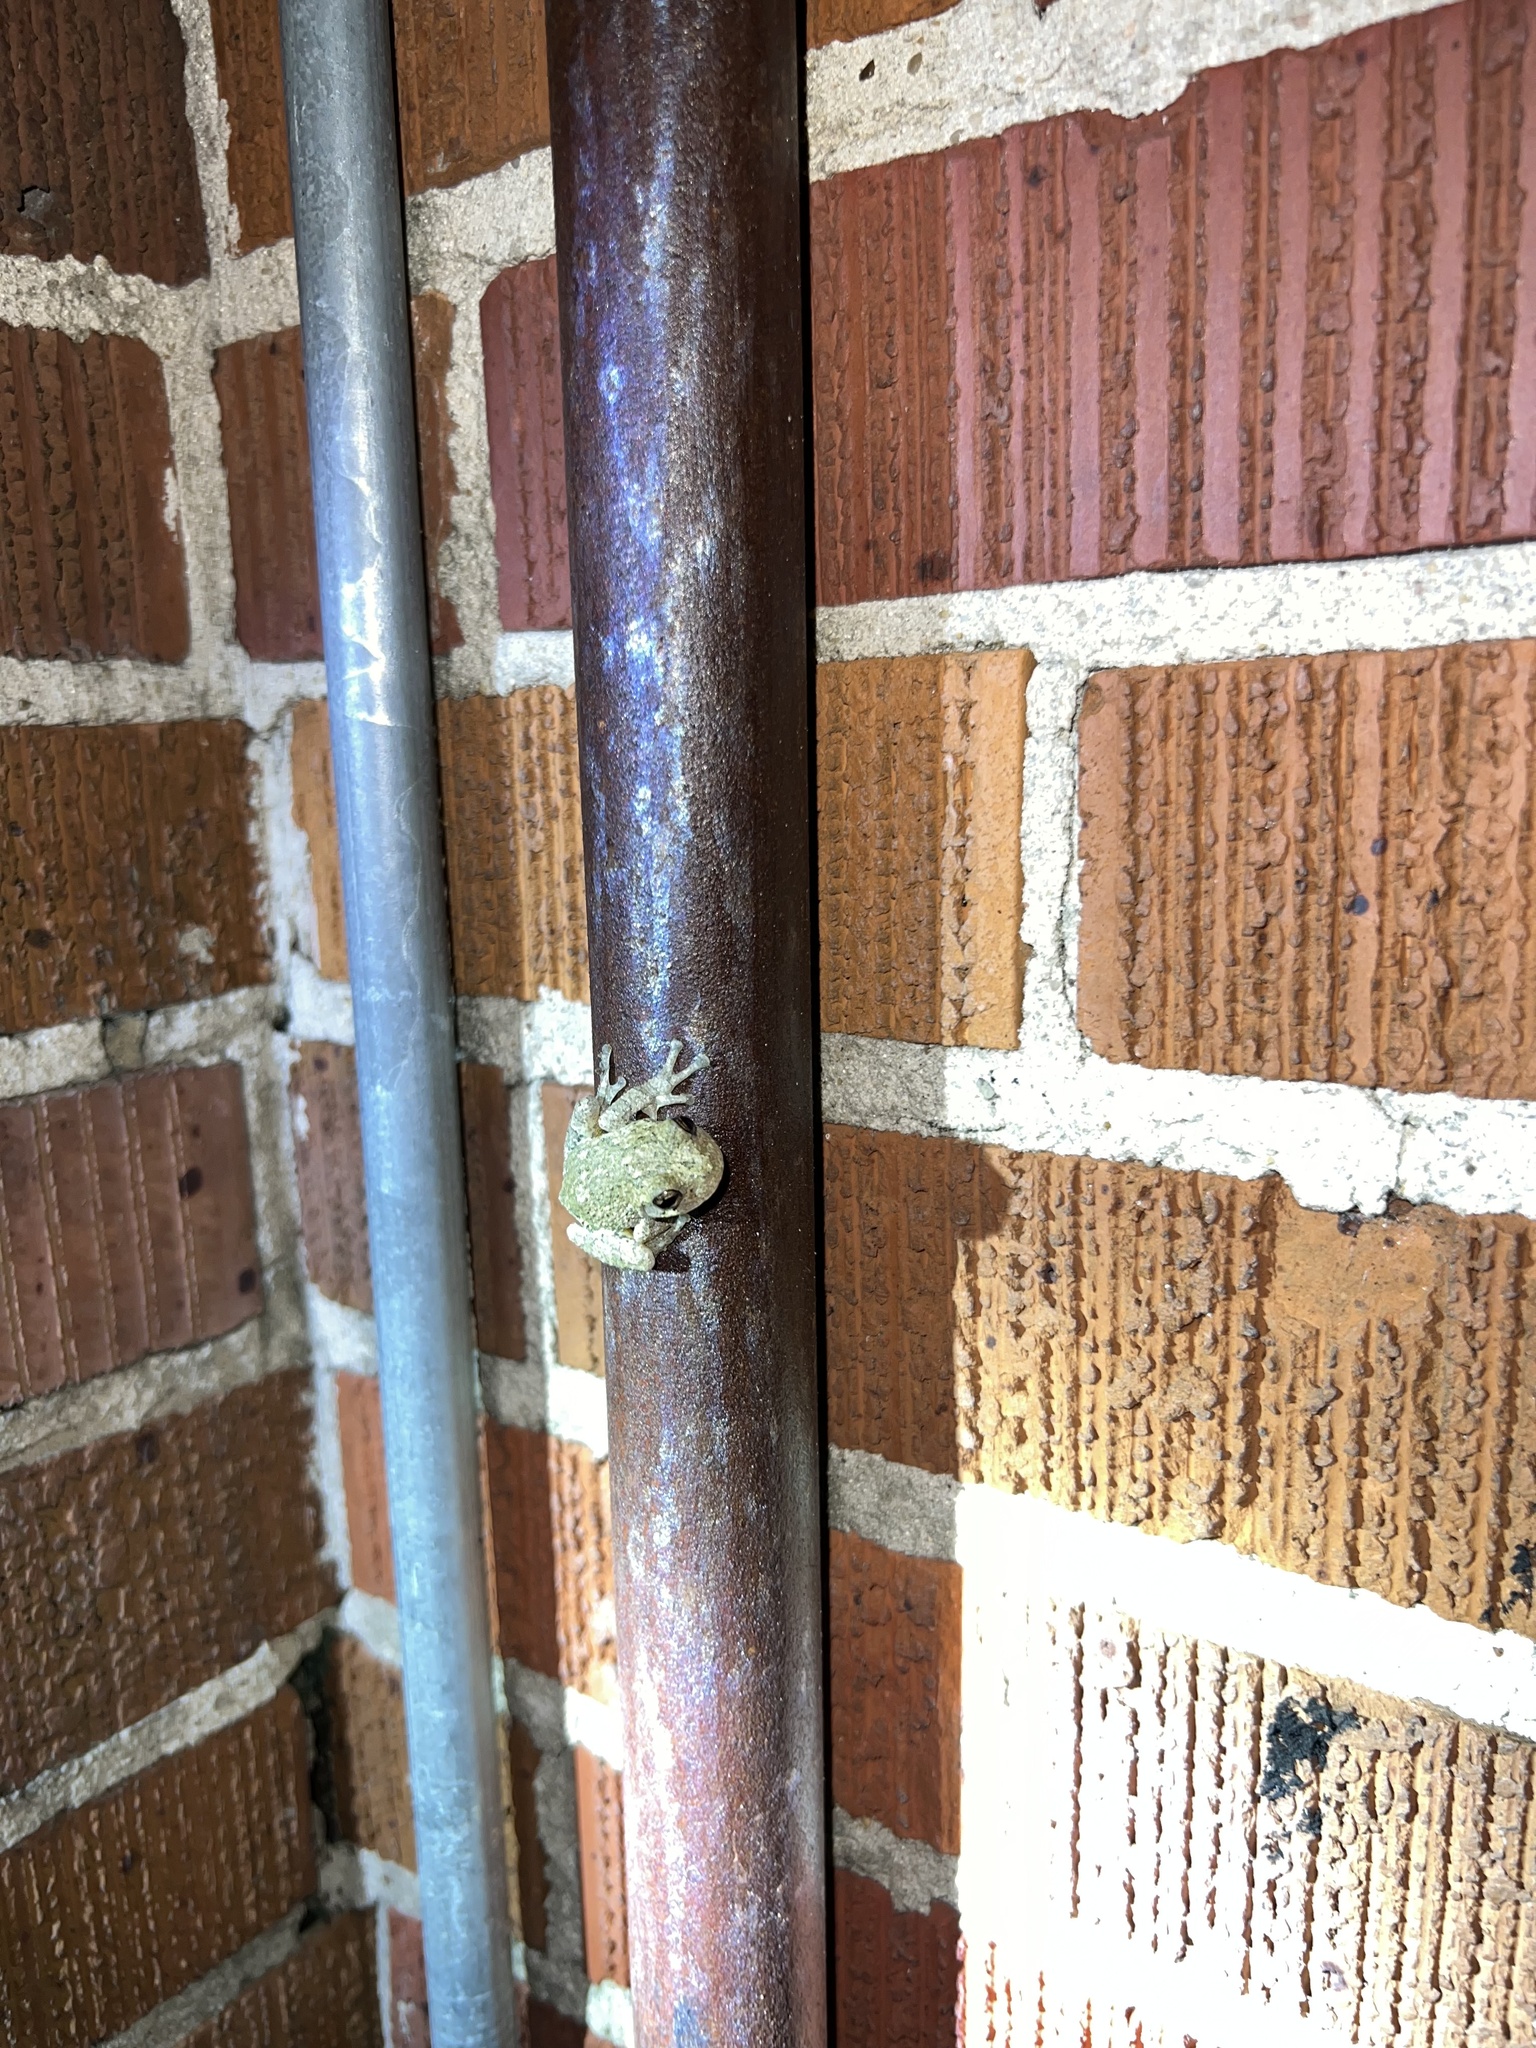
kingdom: Animalia
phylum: Chordata
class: Amphibia
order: Anura
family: Hylidae
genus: Dryophytes
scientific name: Dryophytes chrysoscelis
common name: Cope's gray treefrog
